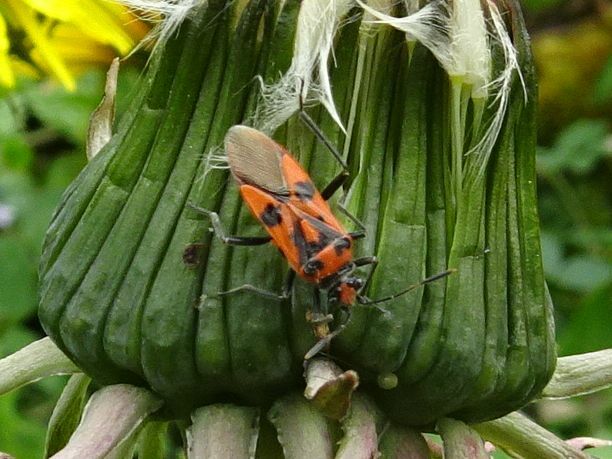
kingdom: Animalia
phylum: Arthropoda
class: Insecta
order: Hemiptera
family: Rhopalidae
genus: Corizus
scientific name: Corizus hyoscyami
